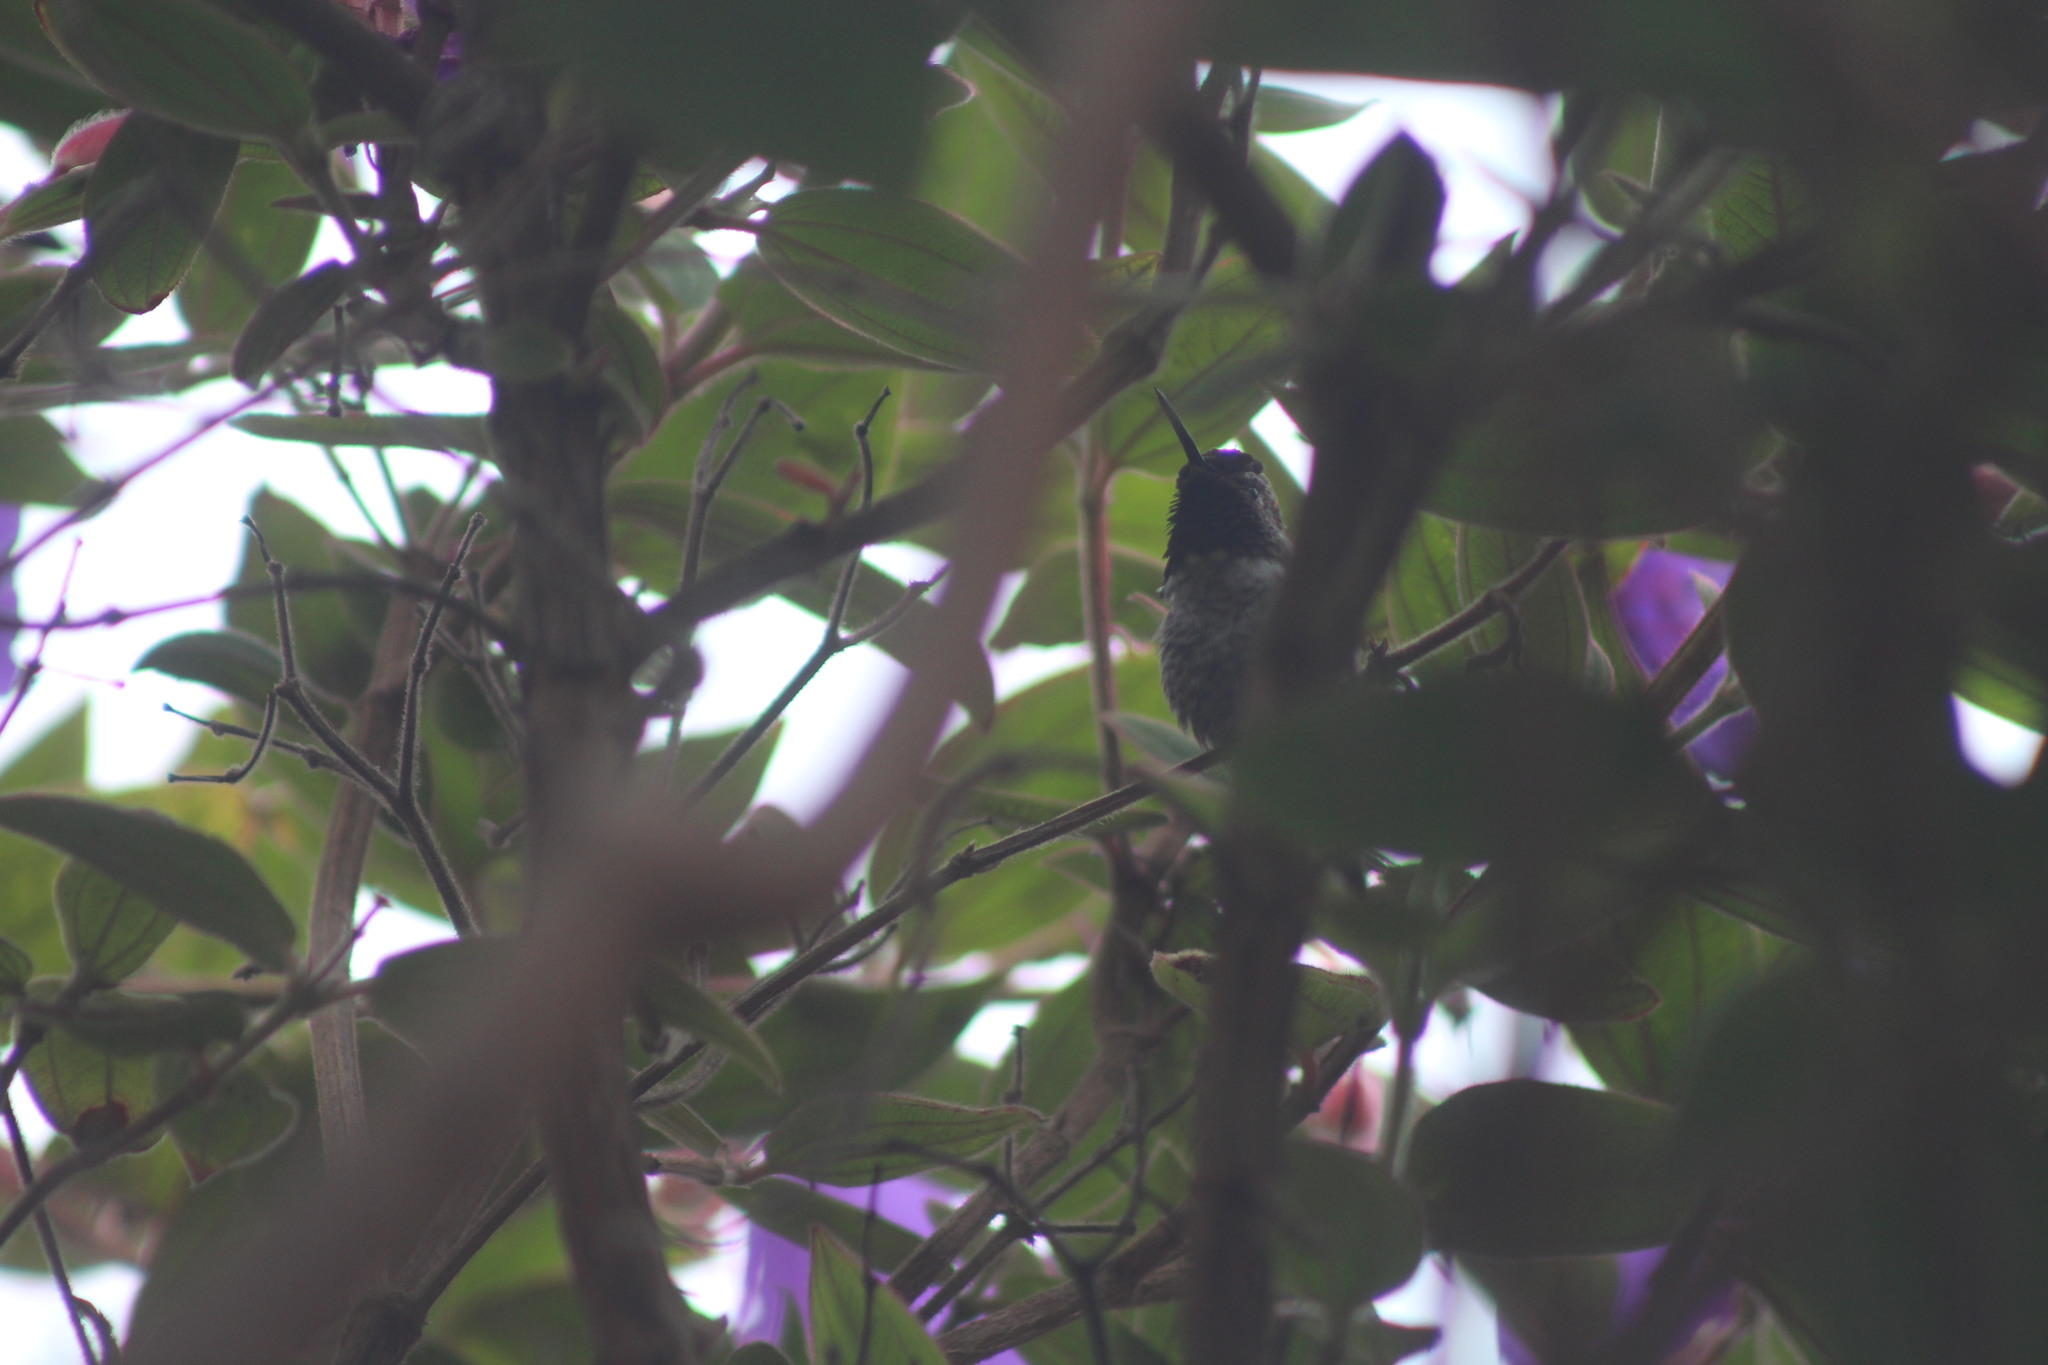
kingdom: Animalia
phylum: Chordata
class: Aves
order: Apodiformes
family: Trochilidae
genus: Calypte
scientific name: Calypte anna
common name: Anna's hummingbird
